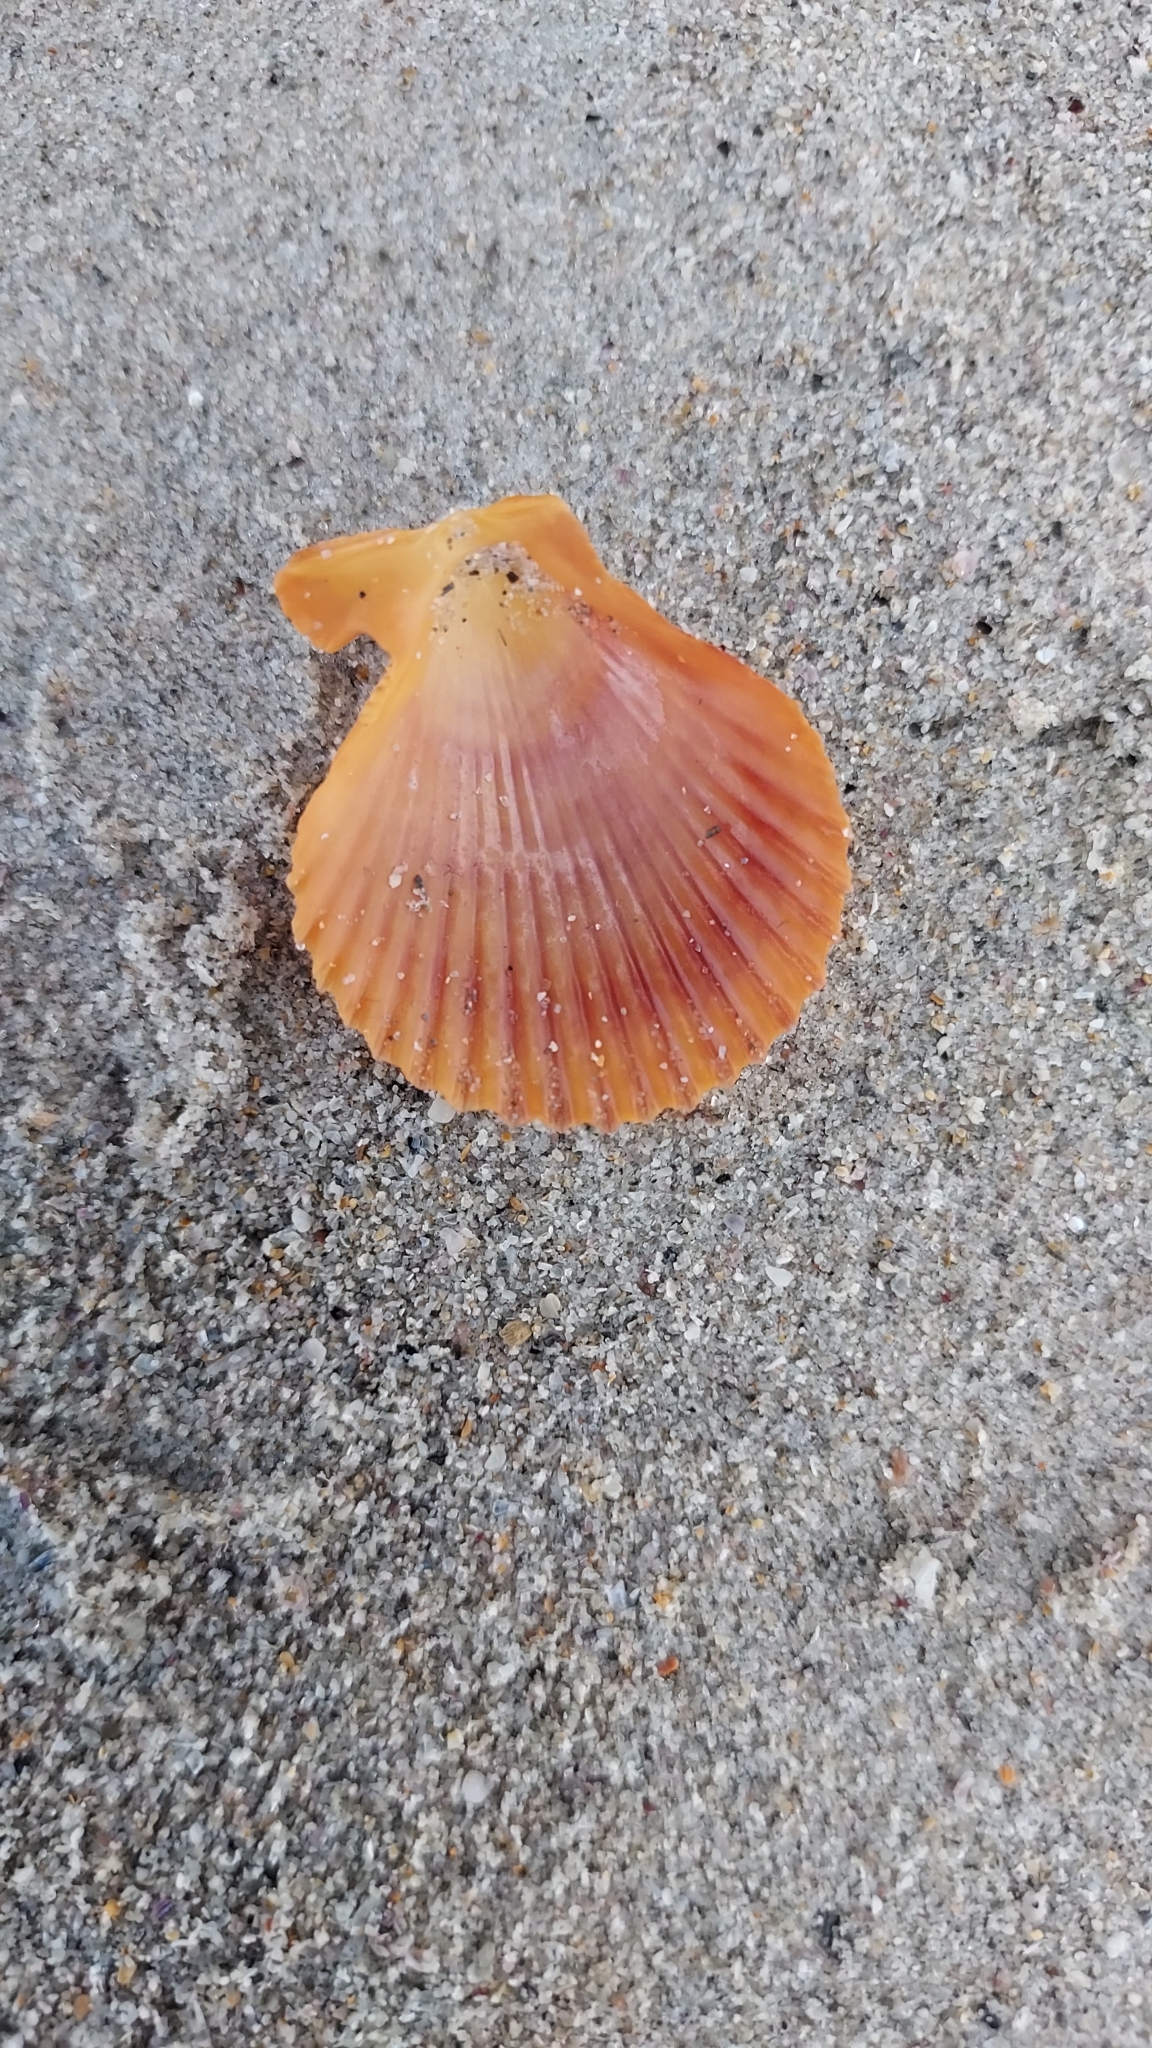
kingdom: Animalia
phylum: Mollusca
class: Bivalvia
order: Pectinida
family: Pectinidae
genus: Mimachlamys
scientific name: Mimachlamys asperrima
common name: Austral scallop
